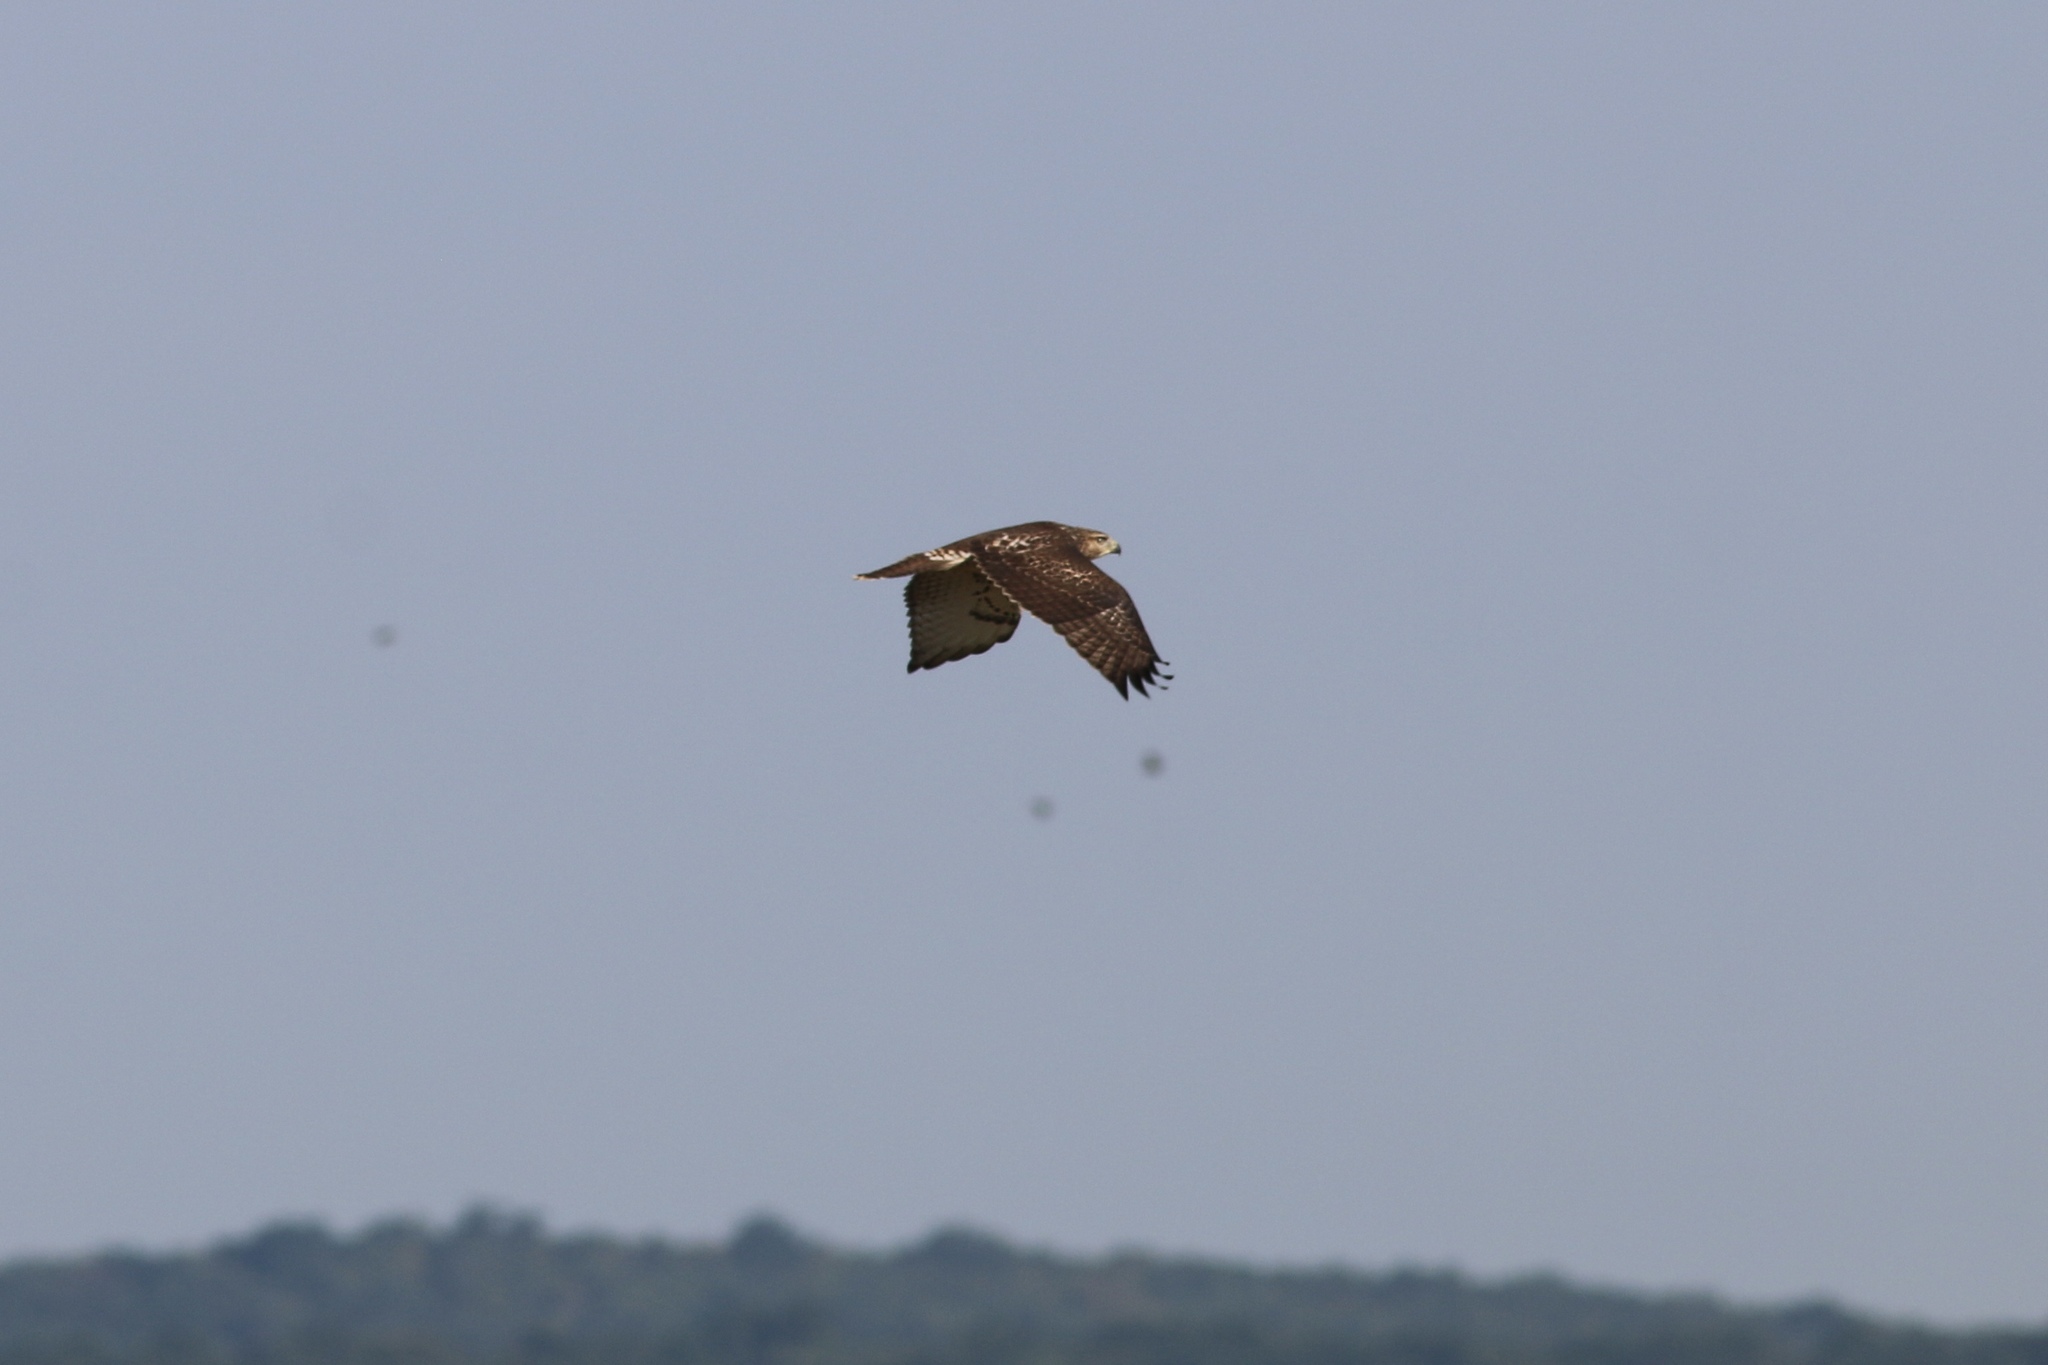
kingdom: Animalia
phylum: Chordata
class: Aves
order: Accipitriformes
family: Accipitridae
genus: Buteo
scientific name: Buteo jamaicensis
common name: Red-tailed hawk
